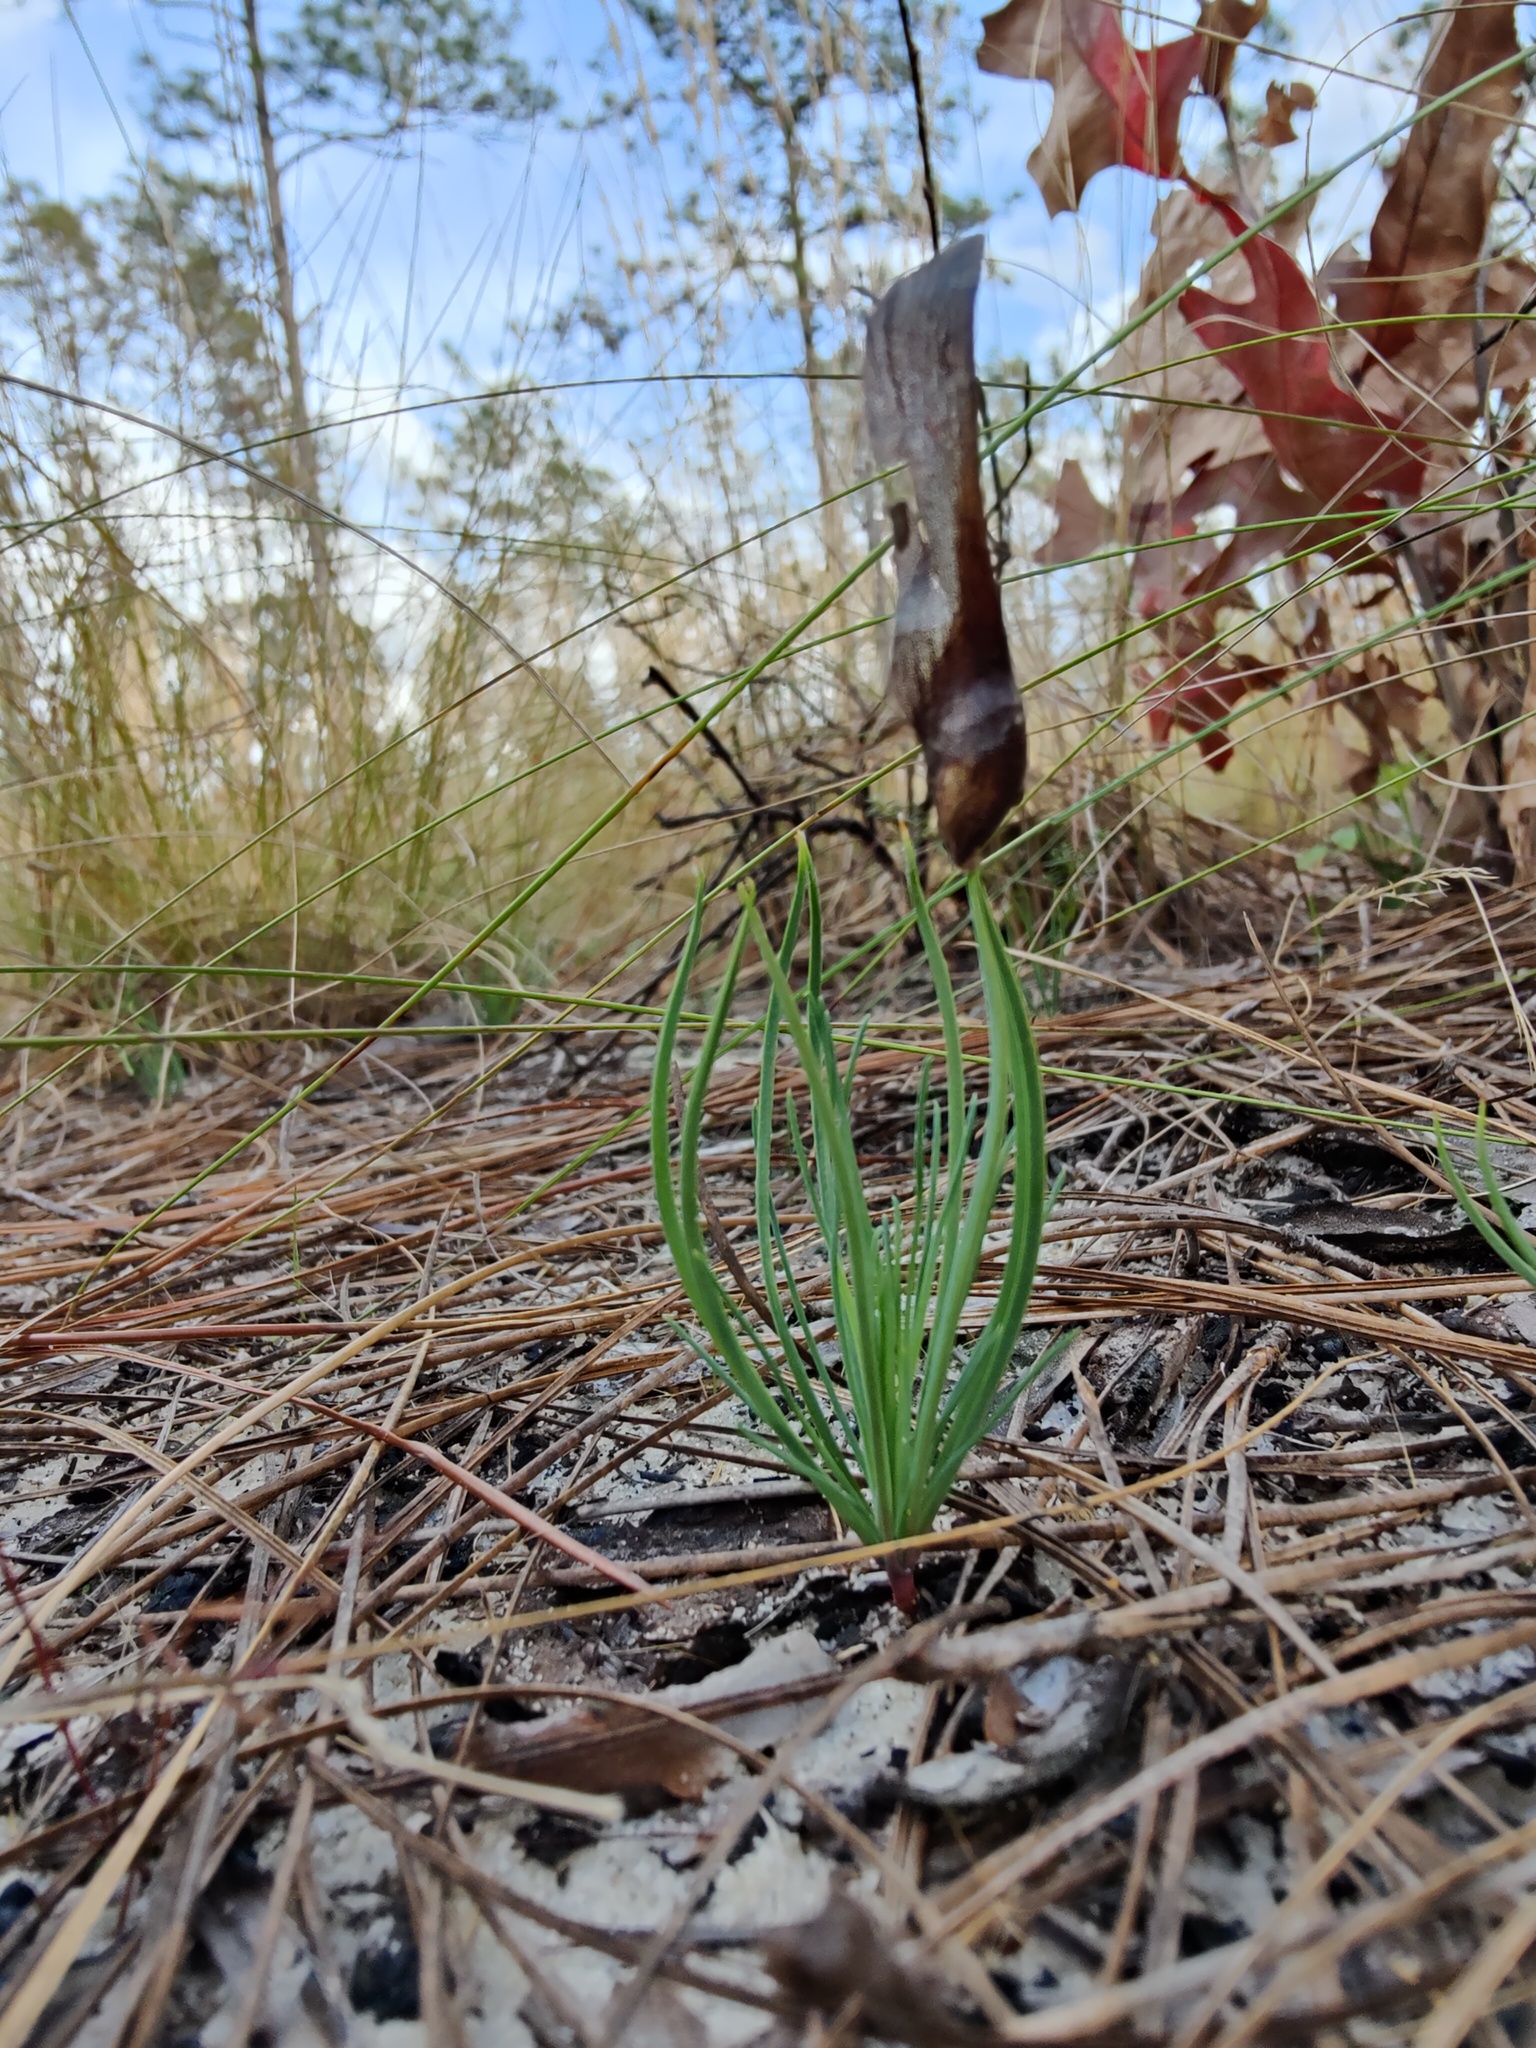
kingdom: Plantae
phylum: Tracheophyta
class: Pinopsida
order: Pinales
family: Pinaceae
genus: Pinus
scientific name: Pinus palustris
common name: Longleaf pine
